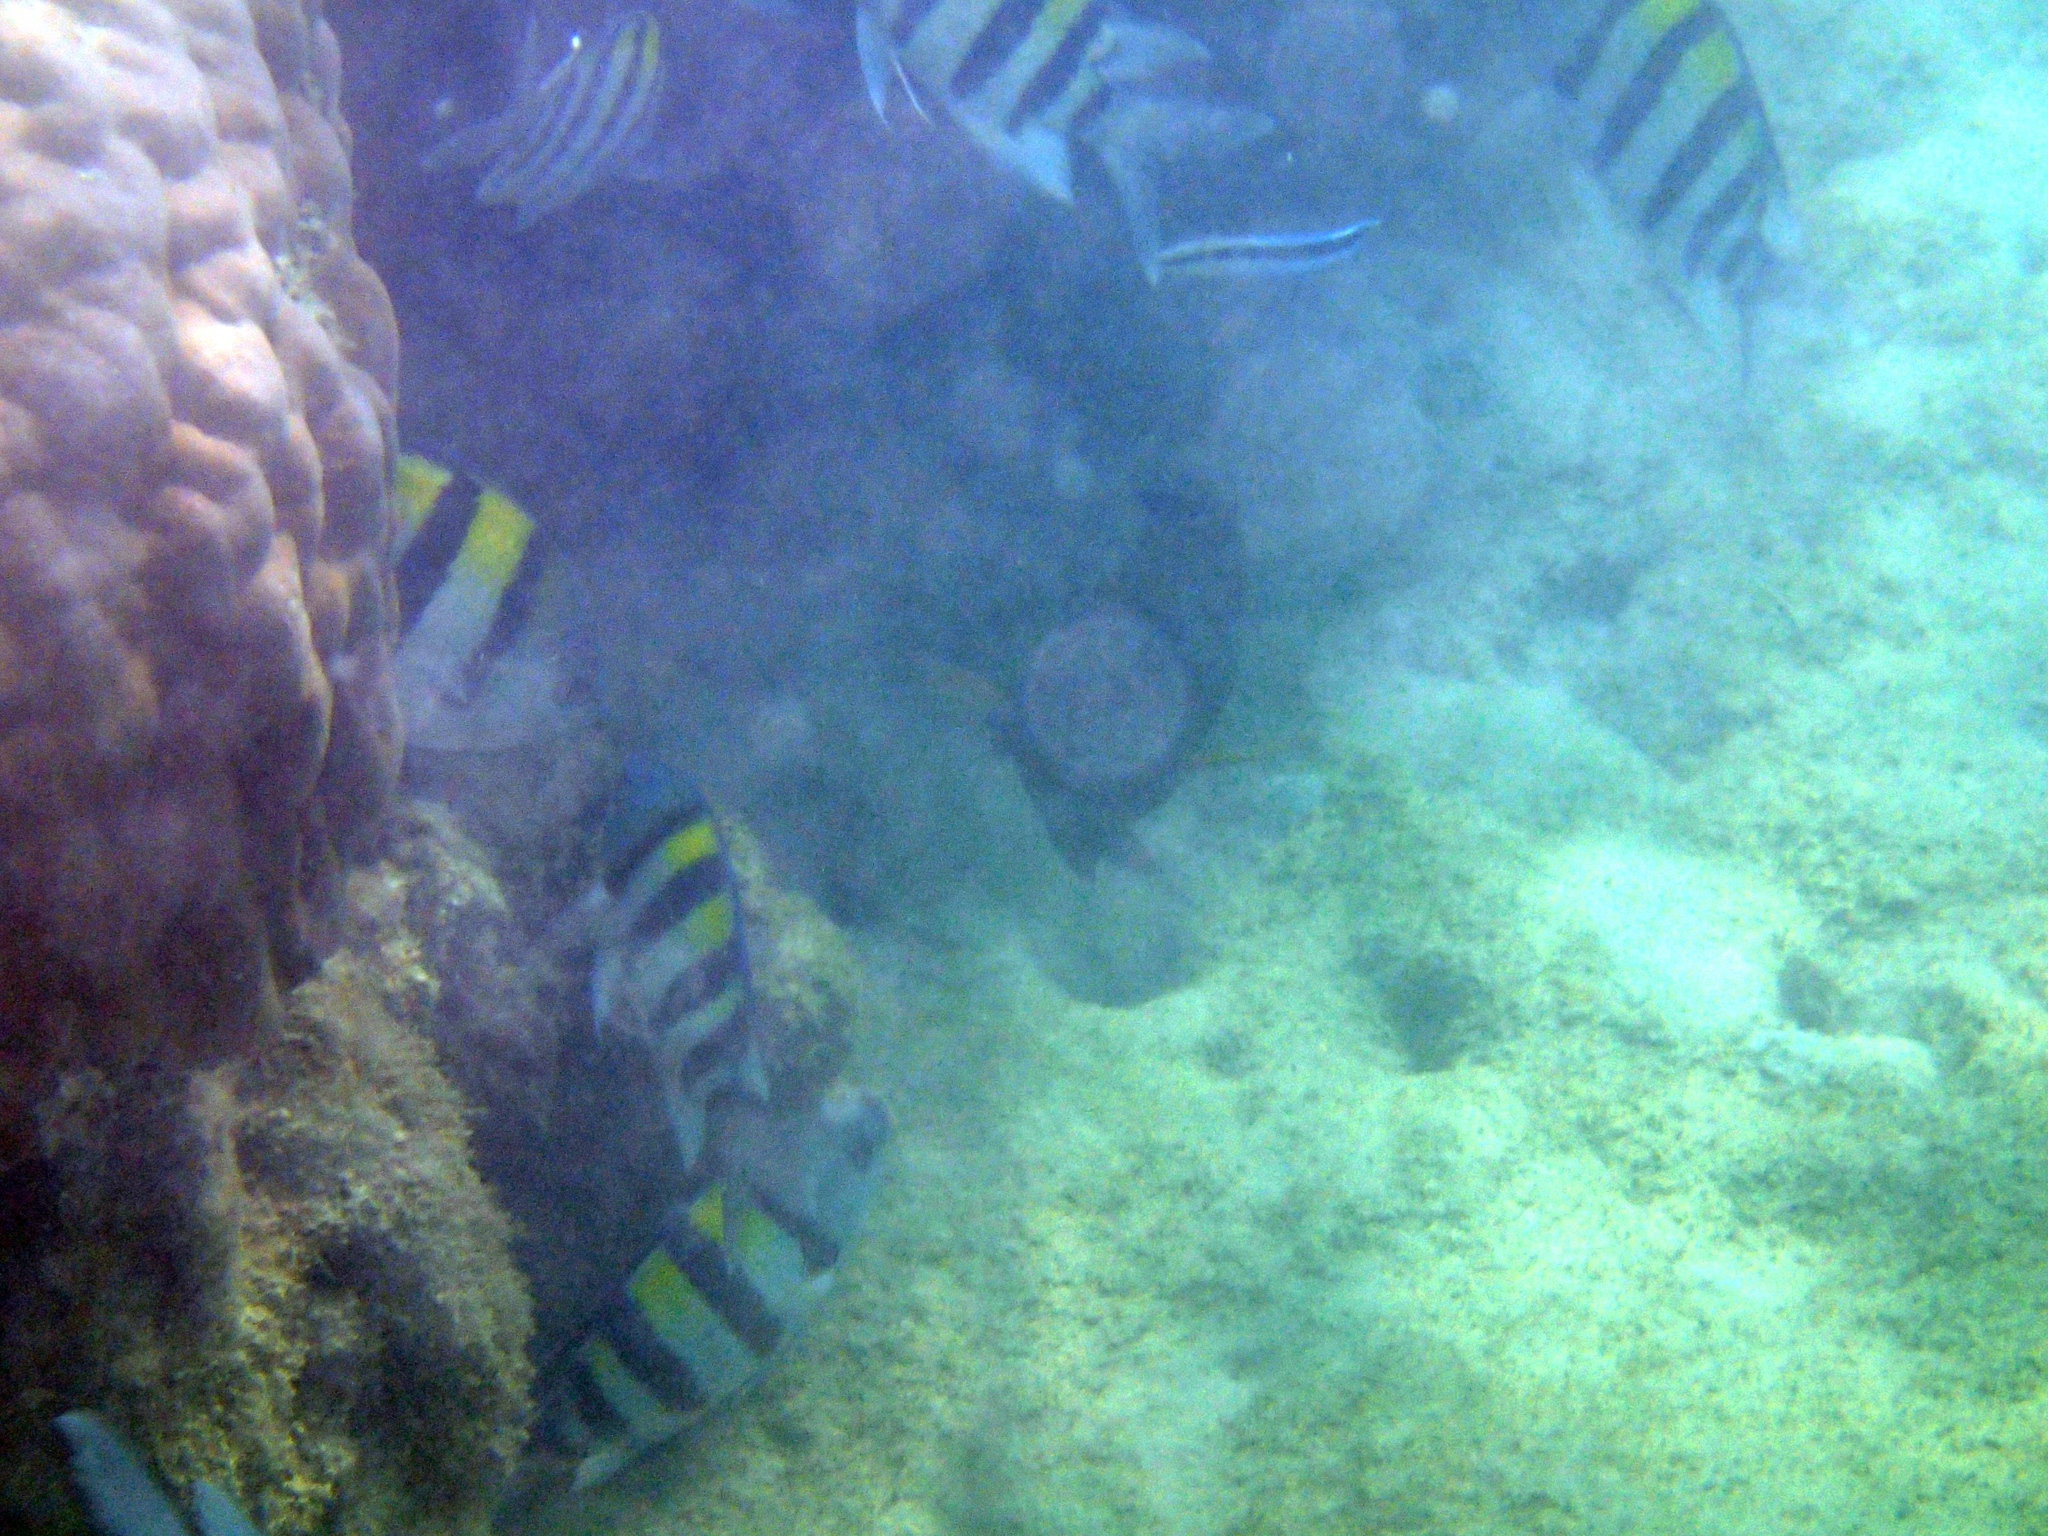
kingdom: Animalia
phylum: Chordata
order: Perciformes
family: Pomacentridae
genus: Abudefduf
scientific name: Abudefduf vaigiensis
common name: Indo-pacific sergeant
